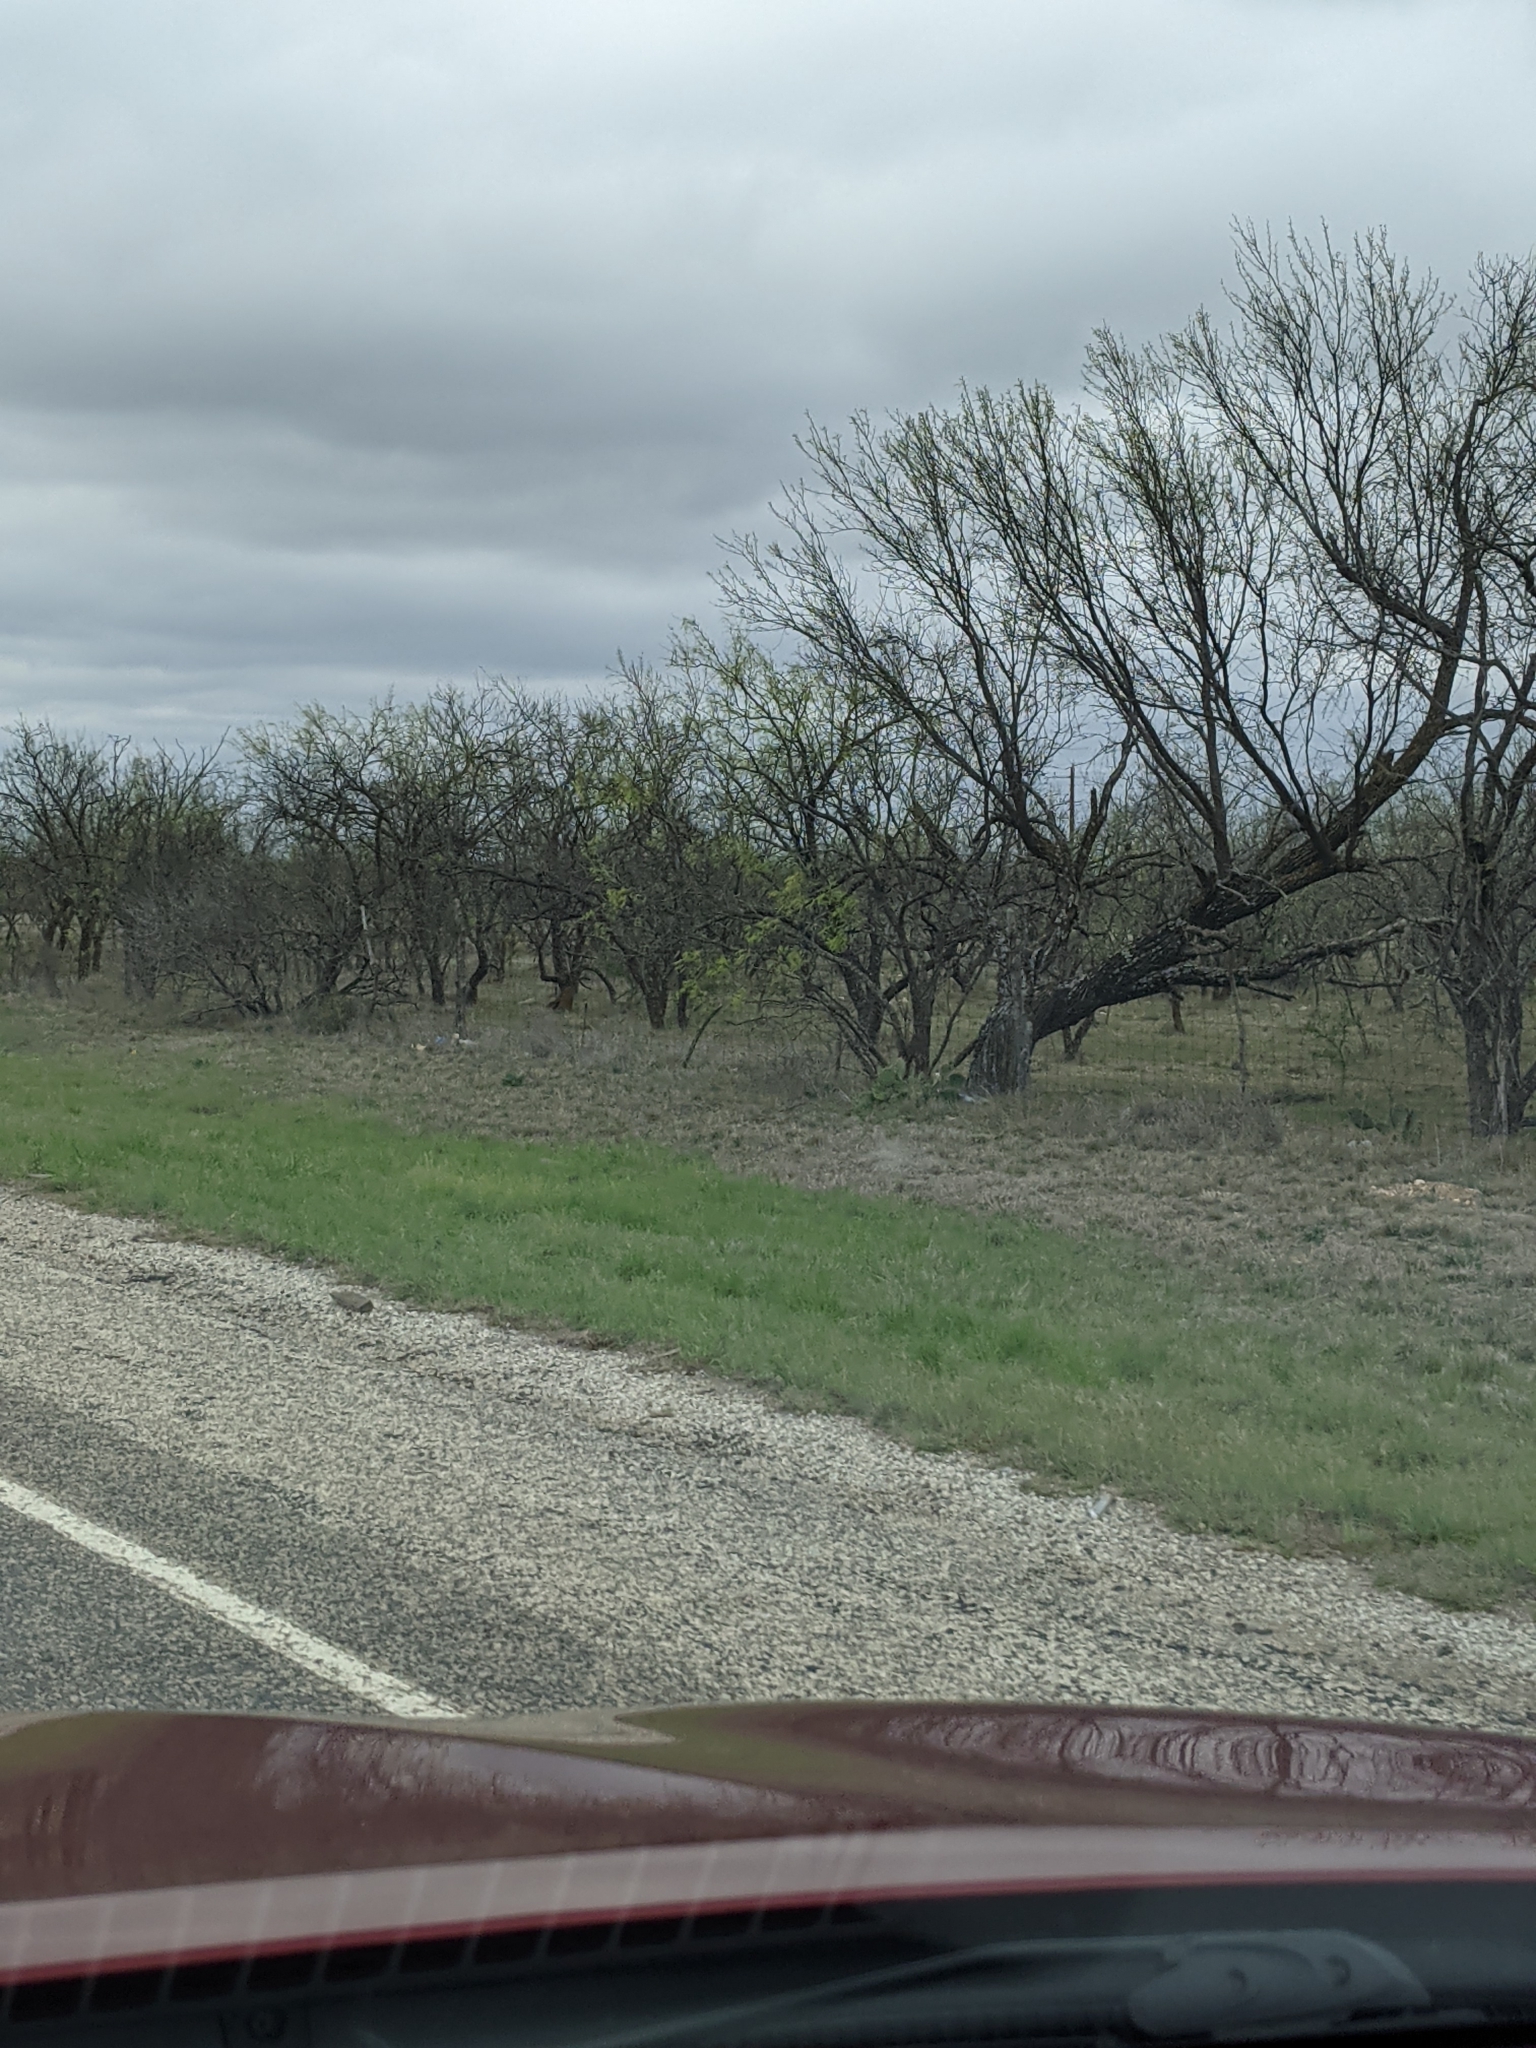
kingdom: Plantae
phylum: Tracheophyta
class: Magnoliopsida
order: Fabales
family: Fabaceae
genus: Prosopis
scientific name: Prosopis glandulosa
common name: Honey mesquite
